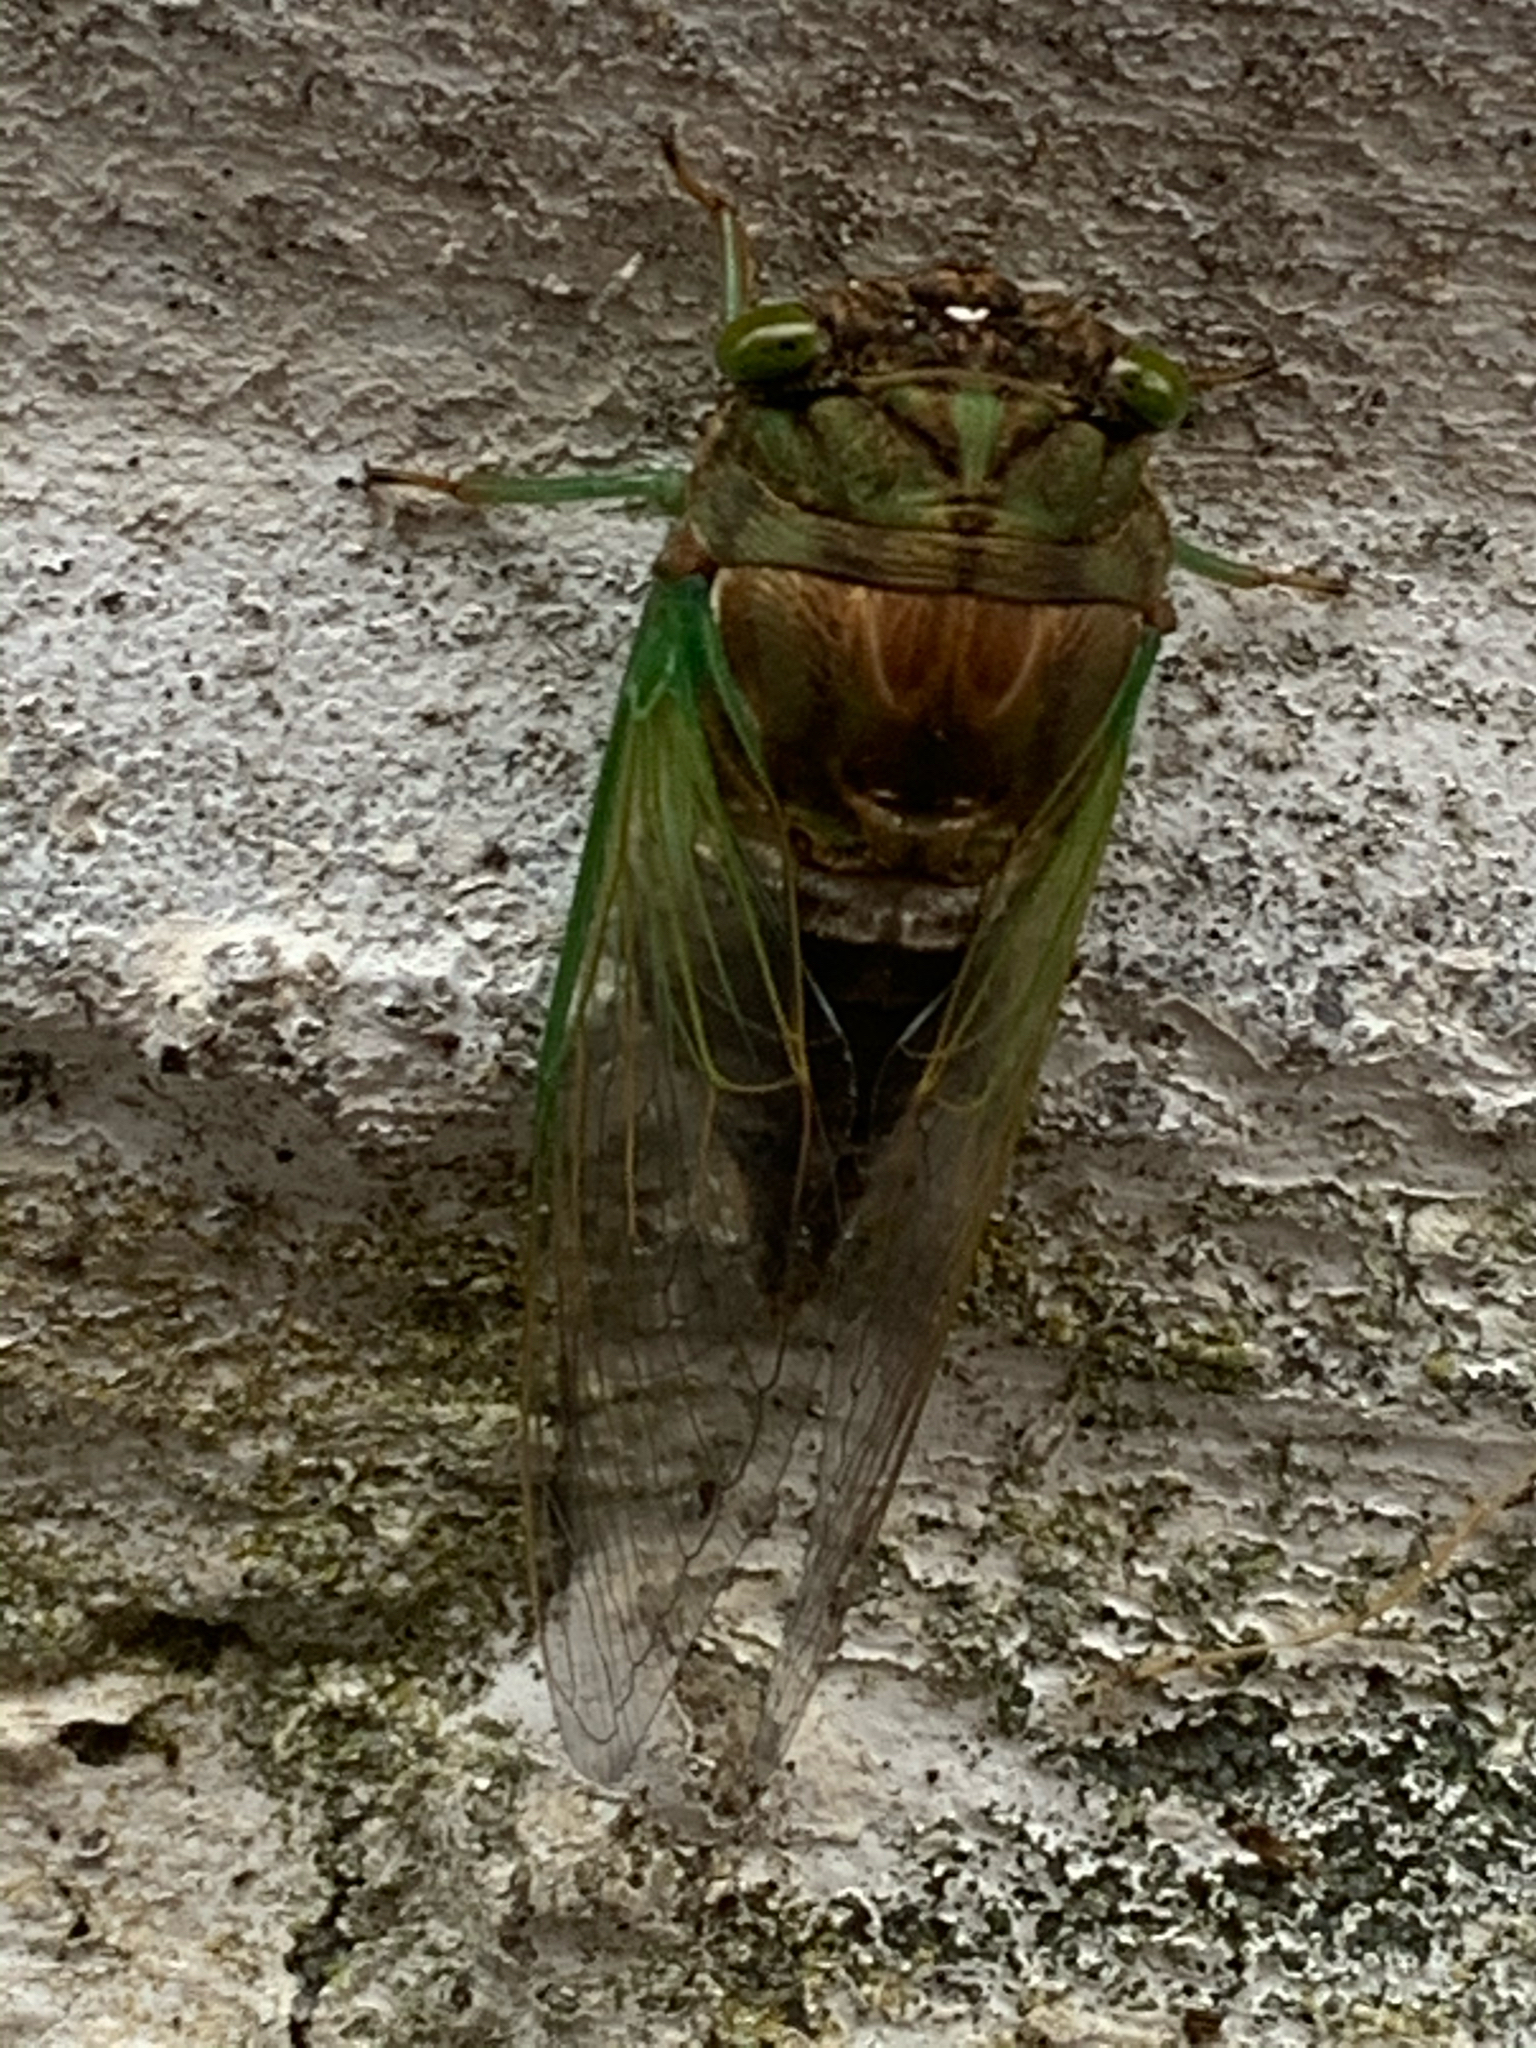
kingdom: Animalia
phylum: Arthropoda
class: Insecta
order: Hemiptera
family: Cicadidae
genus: Neotibicen
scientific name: Neotibicen tibicen
